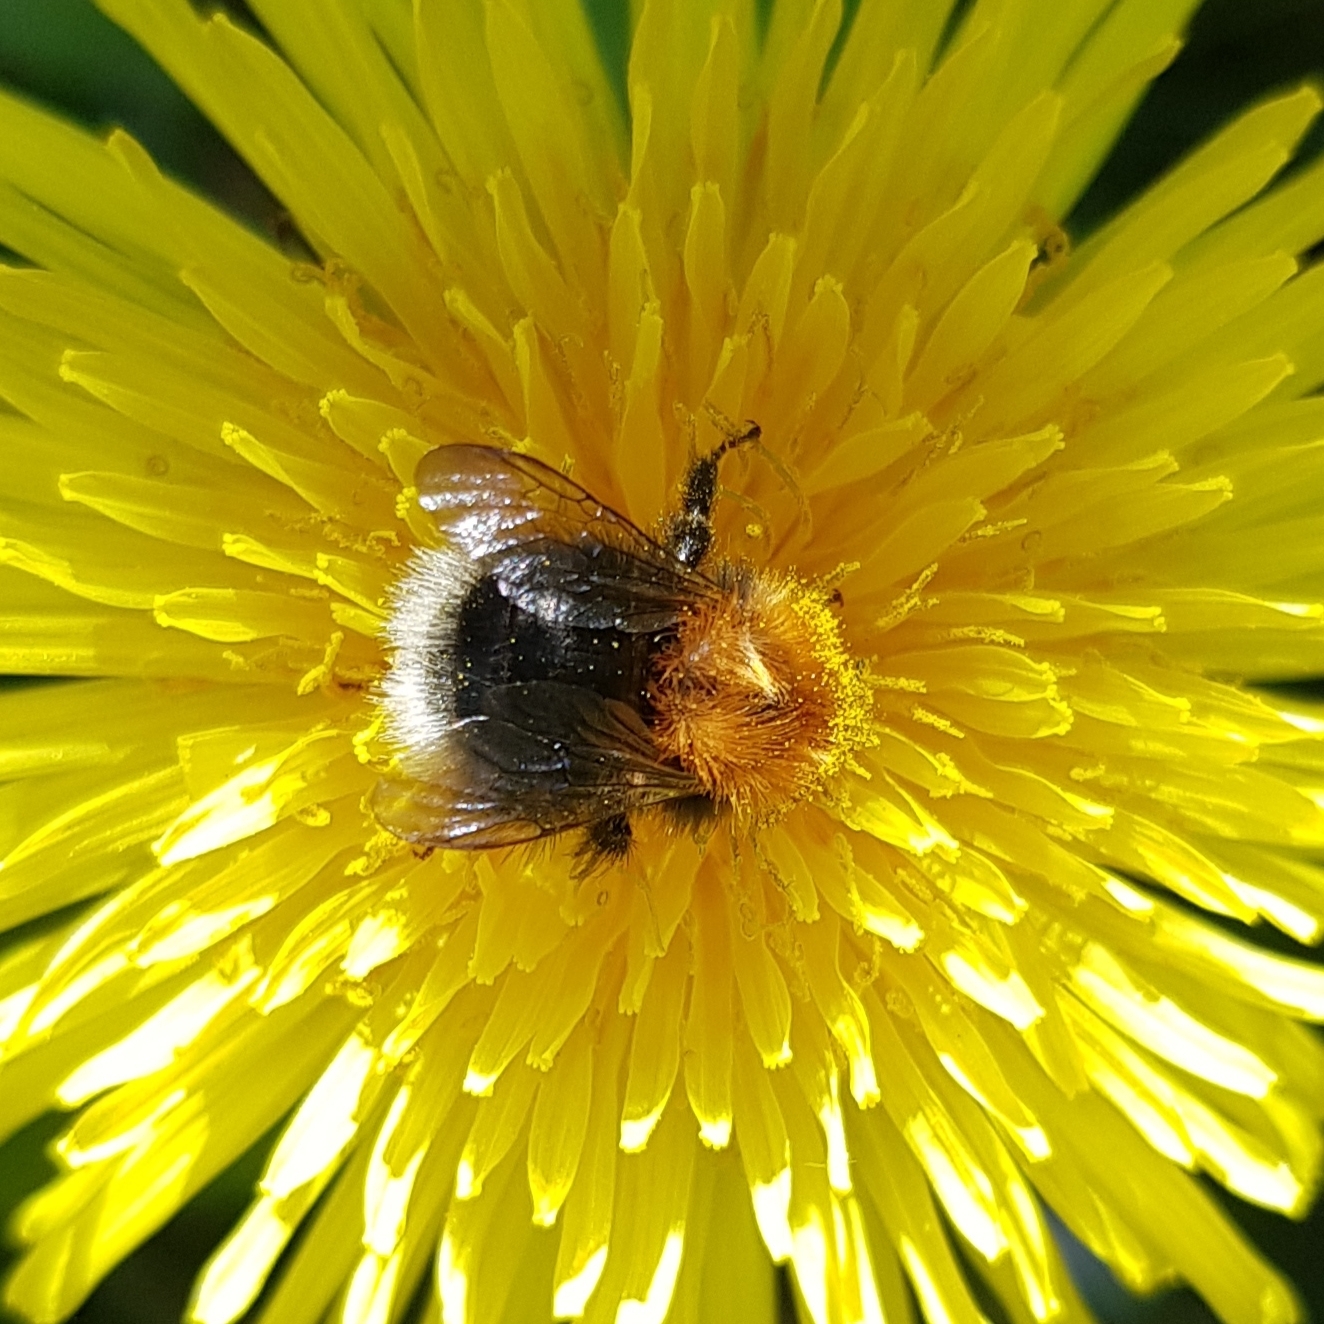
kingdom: Animalia
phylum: Arthropoda
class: Insecta
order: Hymenoptera
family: Apidae
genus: Bombus
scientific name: Bombus hypnorum
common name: New garden bumblebee
